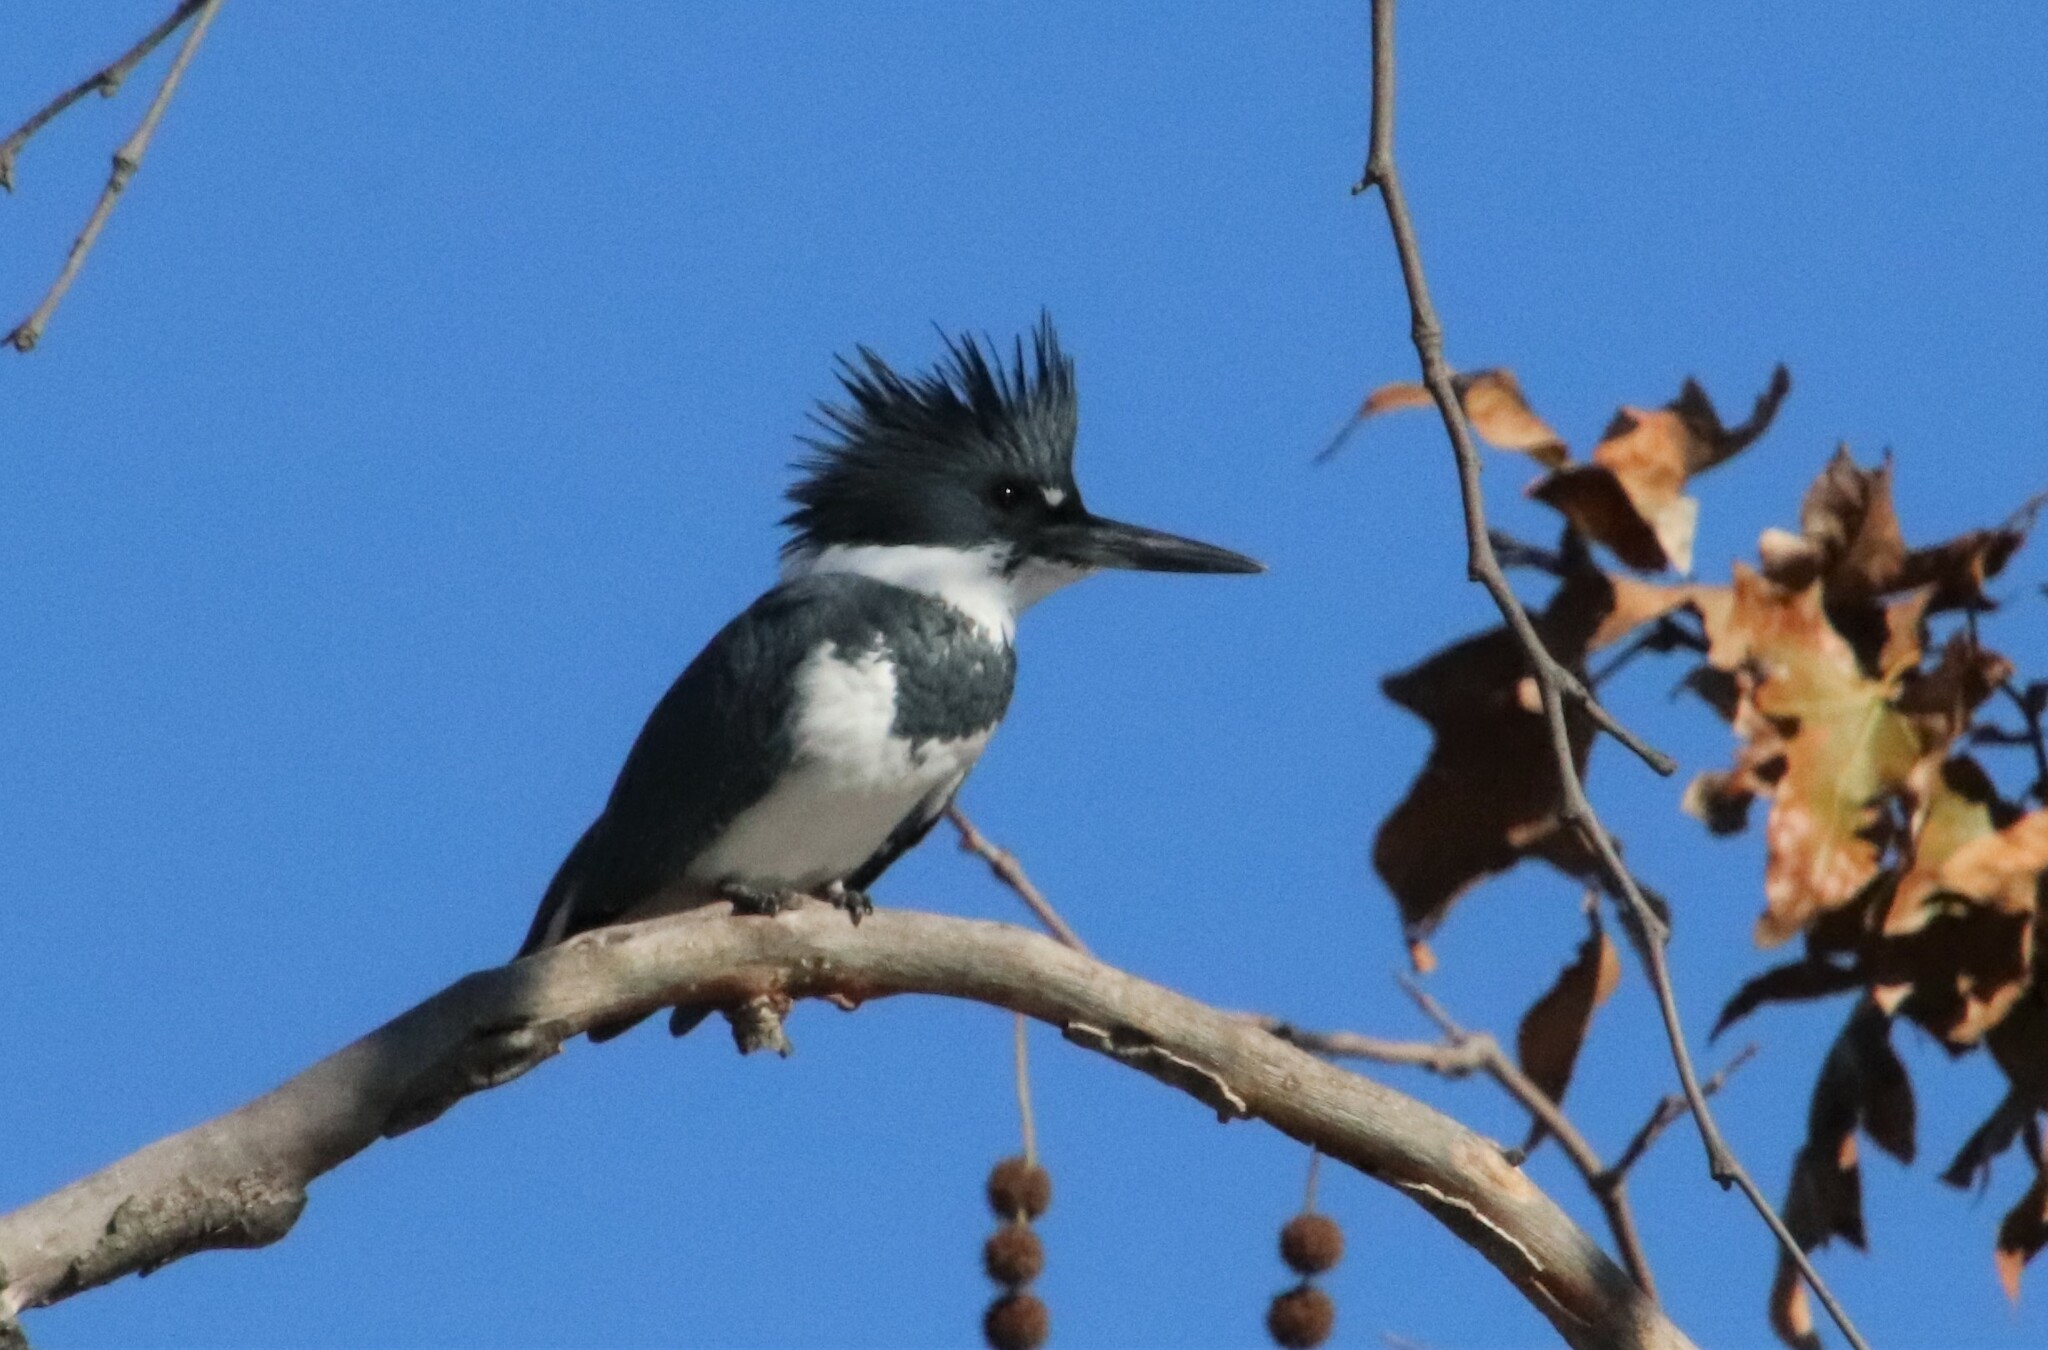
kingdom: Animalia
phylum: Chordata
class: Aves
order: Coraciiformes
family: Alcedinidae
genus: Megaceryle
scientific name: Megaceryle alcyon
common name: Belted kingfisher
